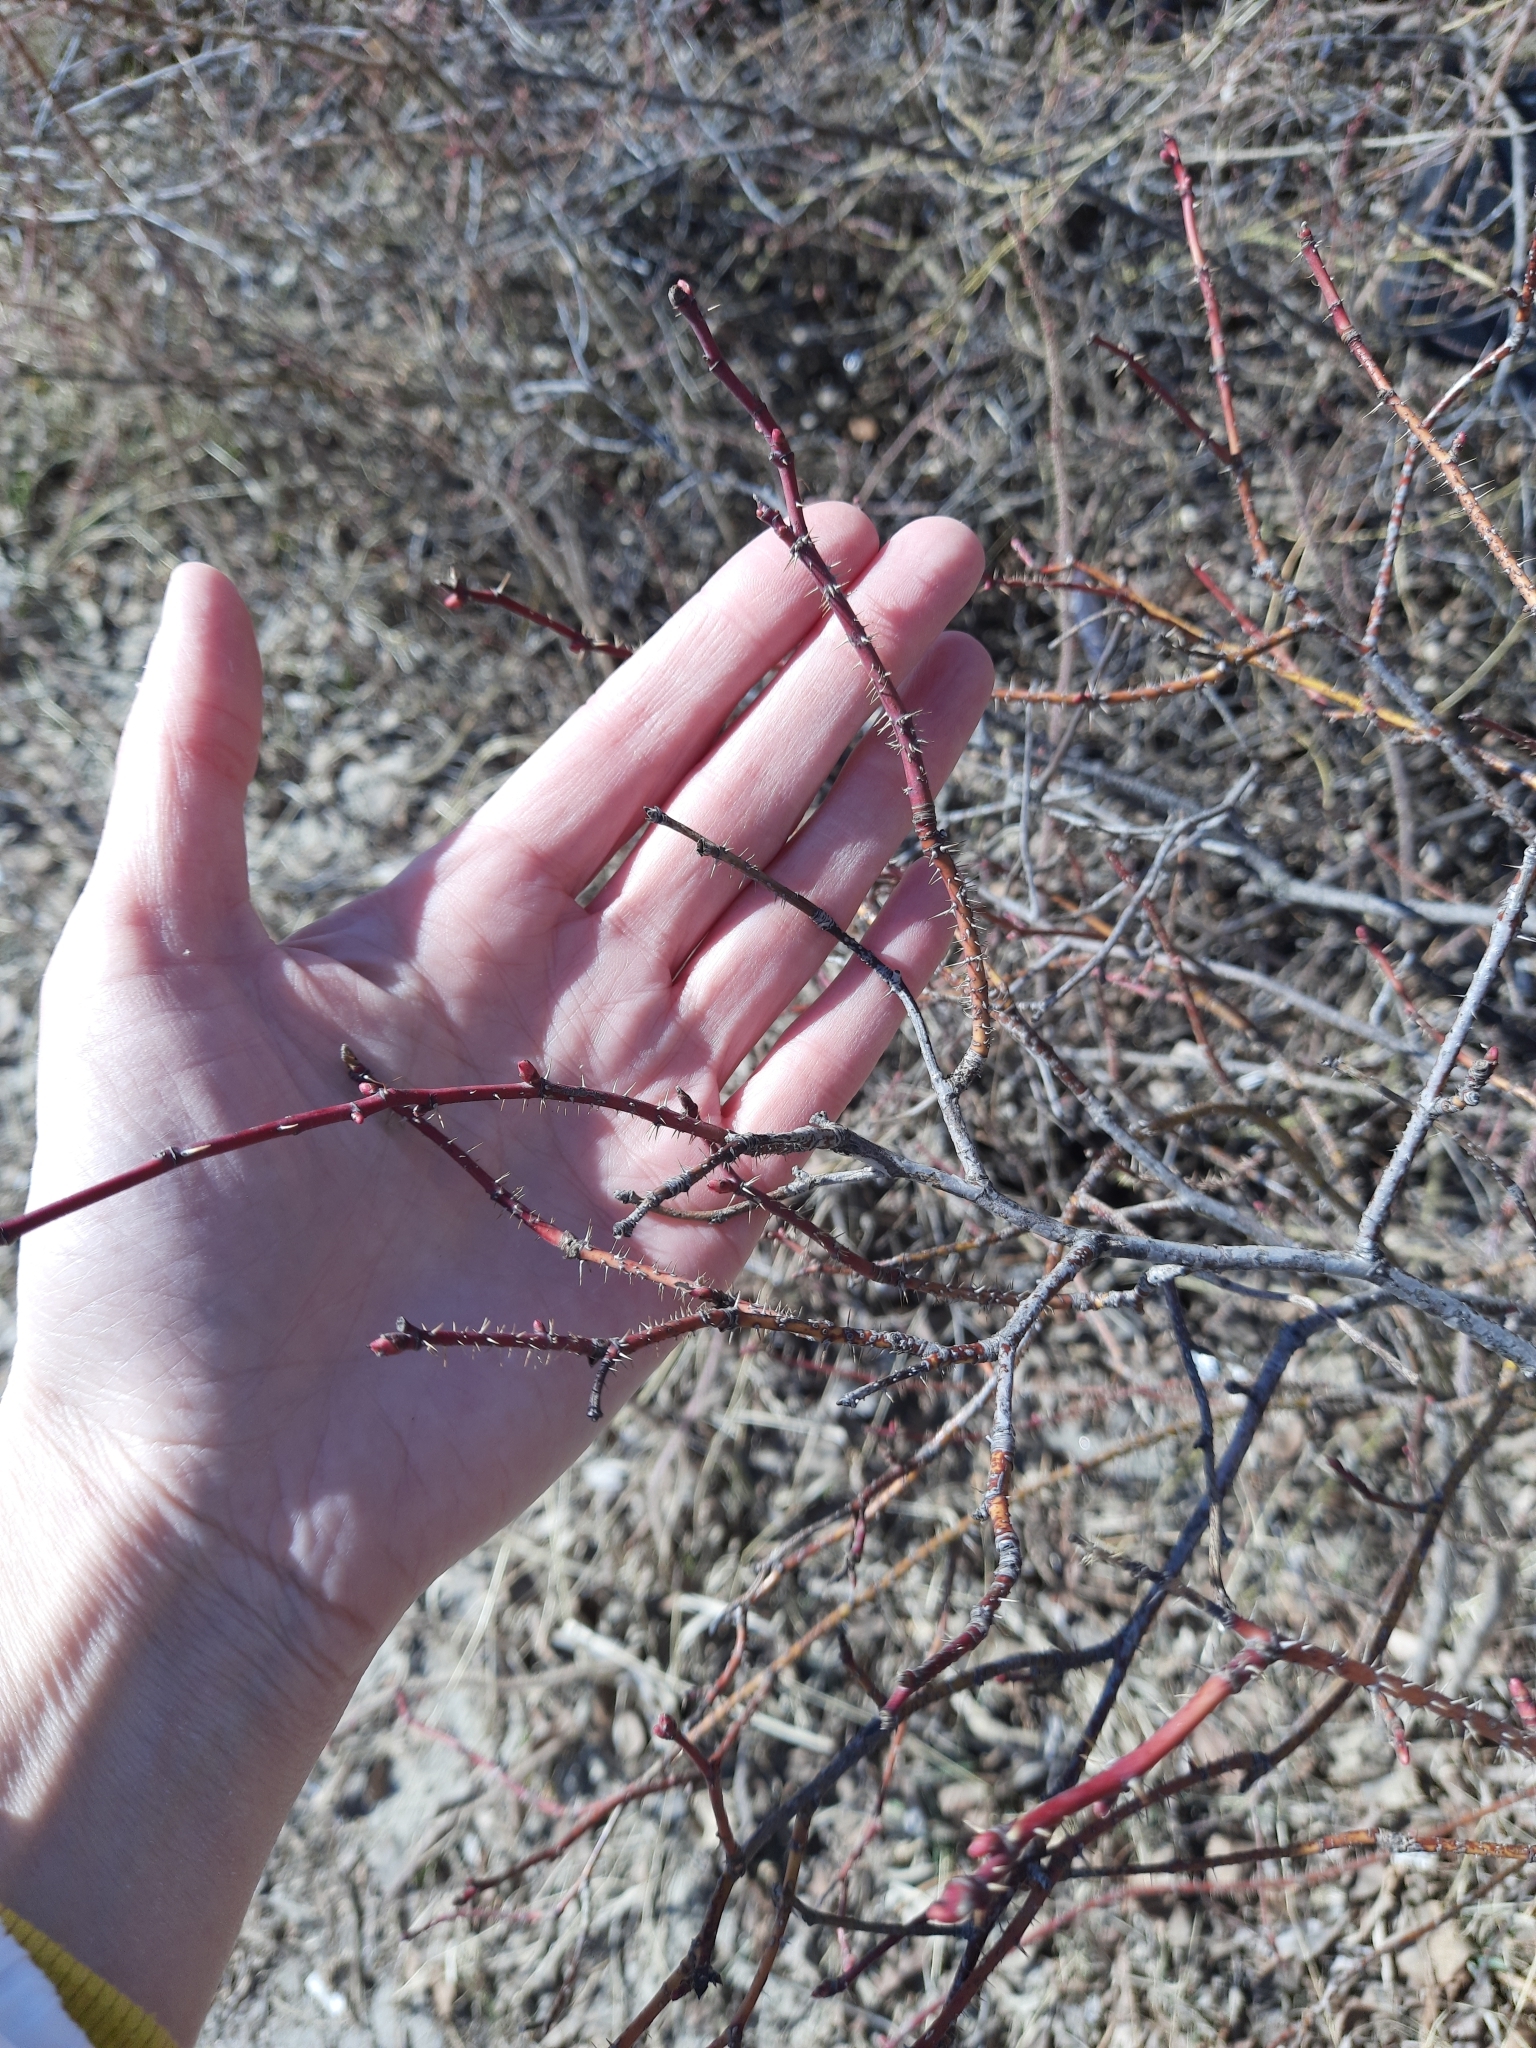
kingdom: Plantae
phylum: Tracheophyta
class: Magnoliopsida
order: Rosales
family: Rosaceae
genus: Rosa
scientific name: Rosa acicularis
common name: Prickly rose
